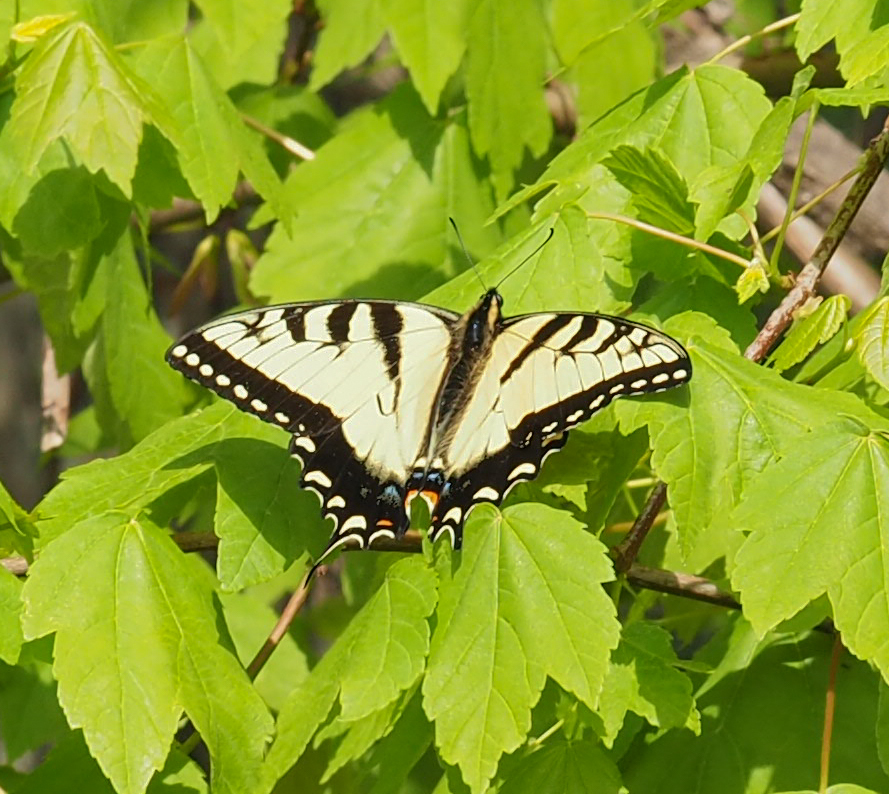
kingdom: Animalia
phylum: Arthropoda
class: Insecta
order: Lepidoptera
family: Papilionidae
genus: Papilio
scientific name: Papilio glaucus
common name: Tiger swallowtail
